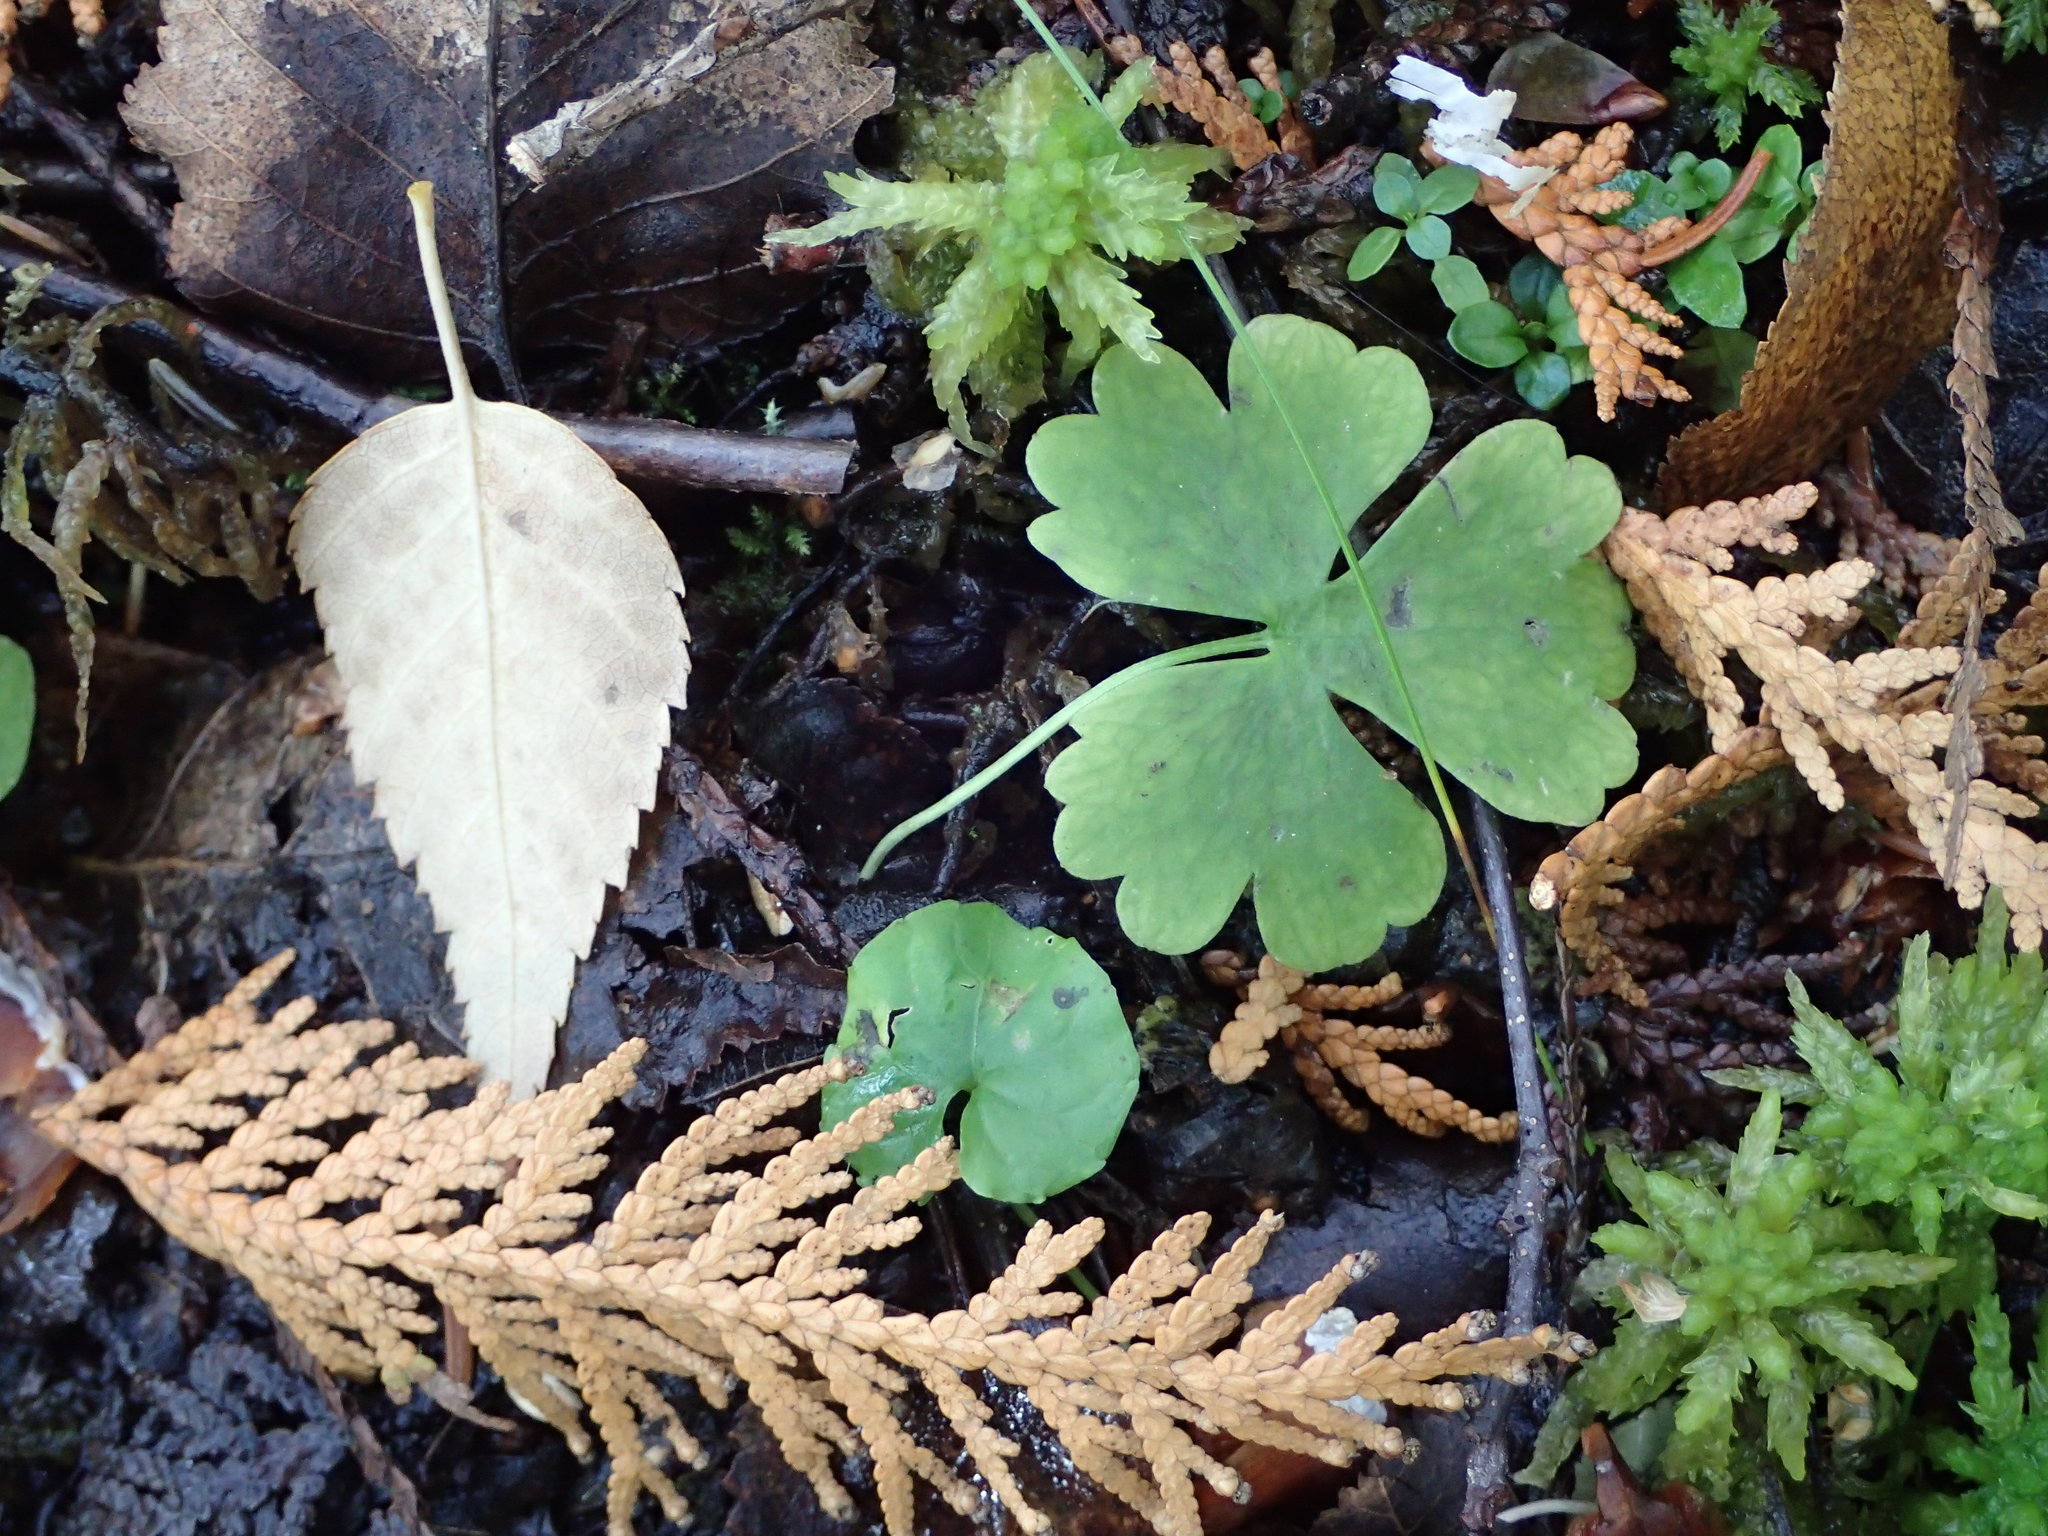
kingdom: Plantae
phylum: Tracheophyta
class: Magnoliopsida
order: Ranunculales
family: Ranunculaceae
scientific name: Ranunculaceae
